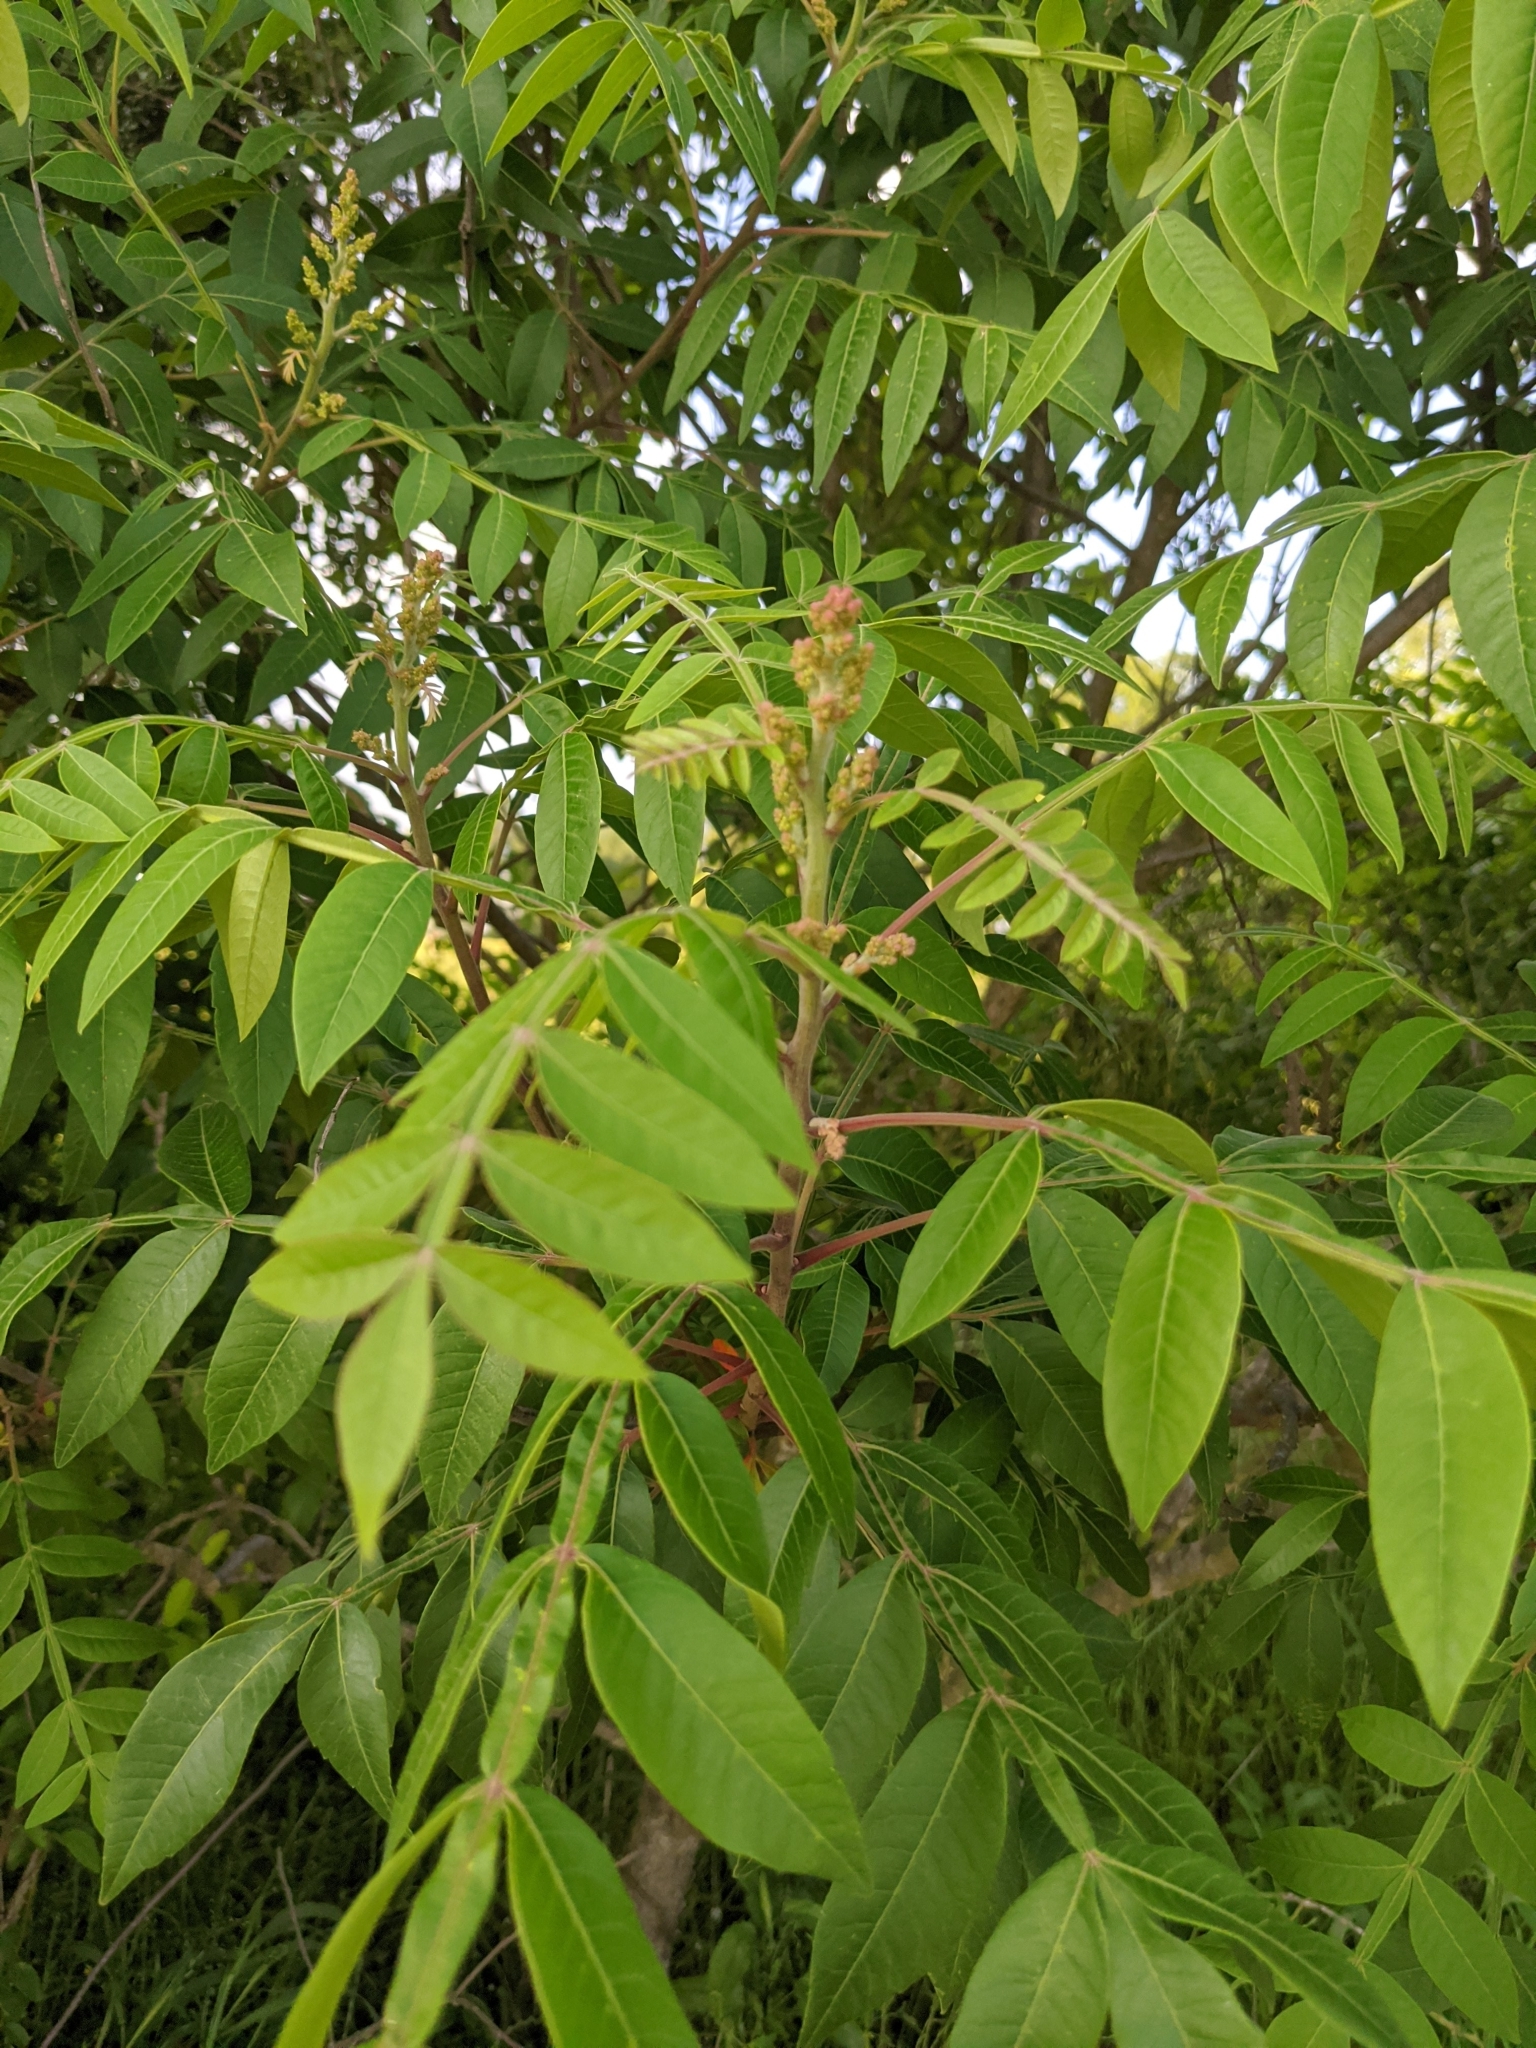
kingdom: Plantae
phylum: Tracheophyta
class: Magnoliopsida
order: Sapindales
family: Anacardiaceae
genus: Rhus
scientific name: Rhus copallina
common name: Shining sumac
